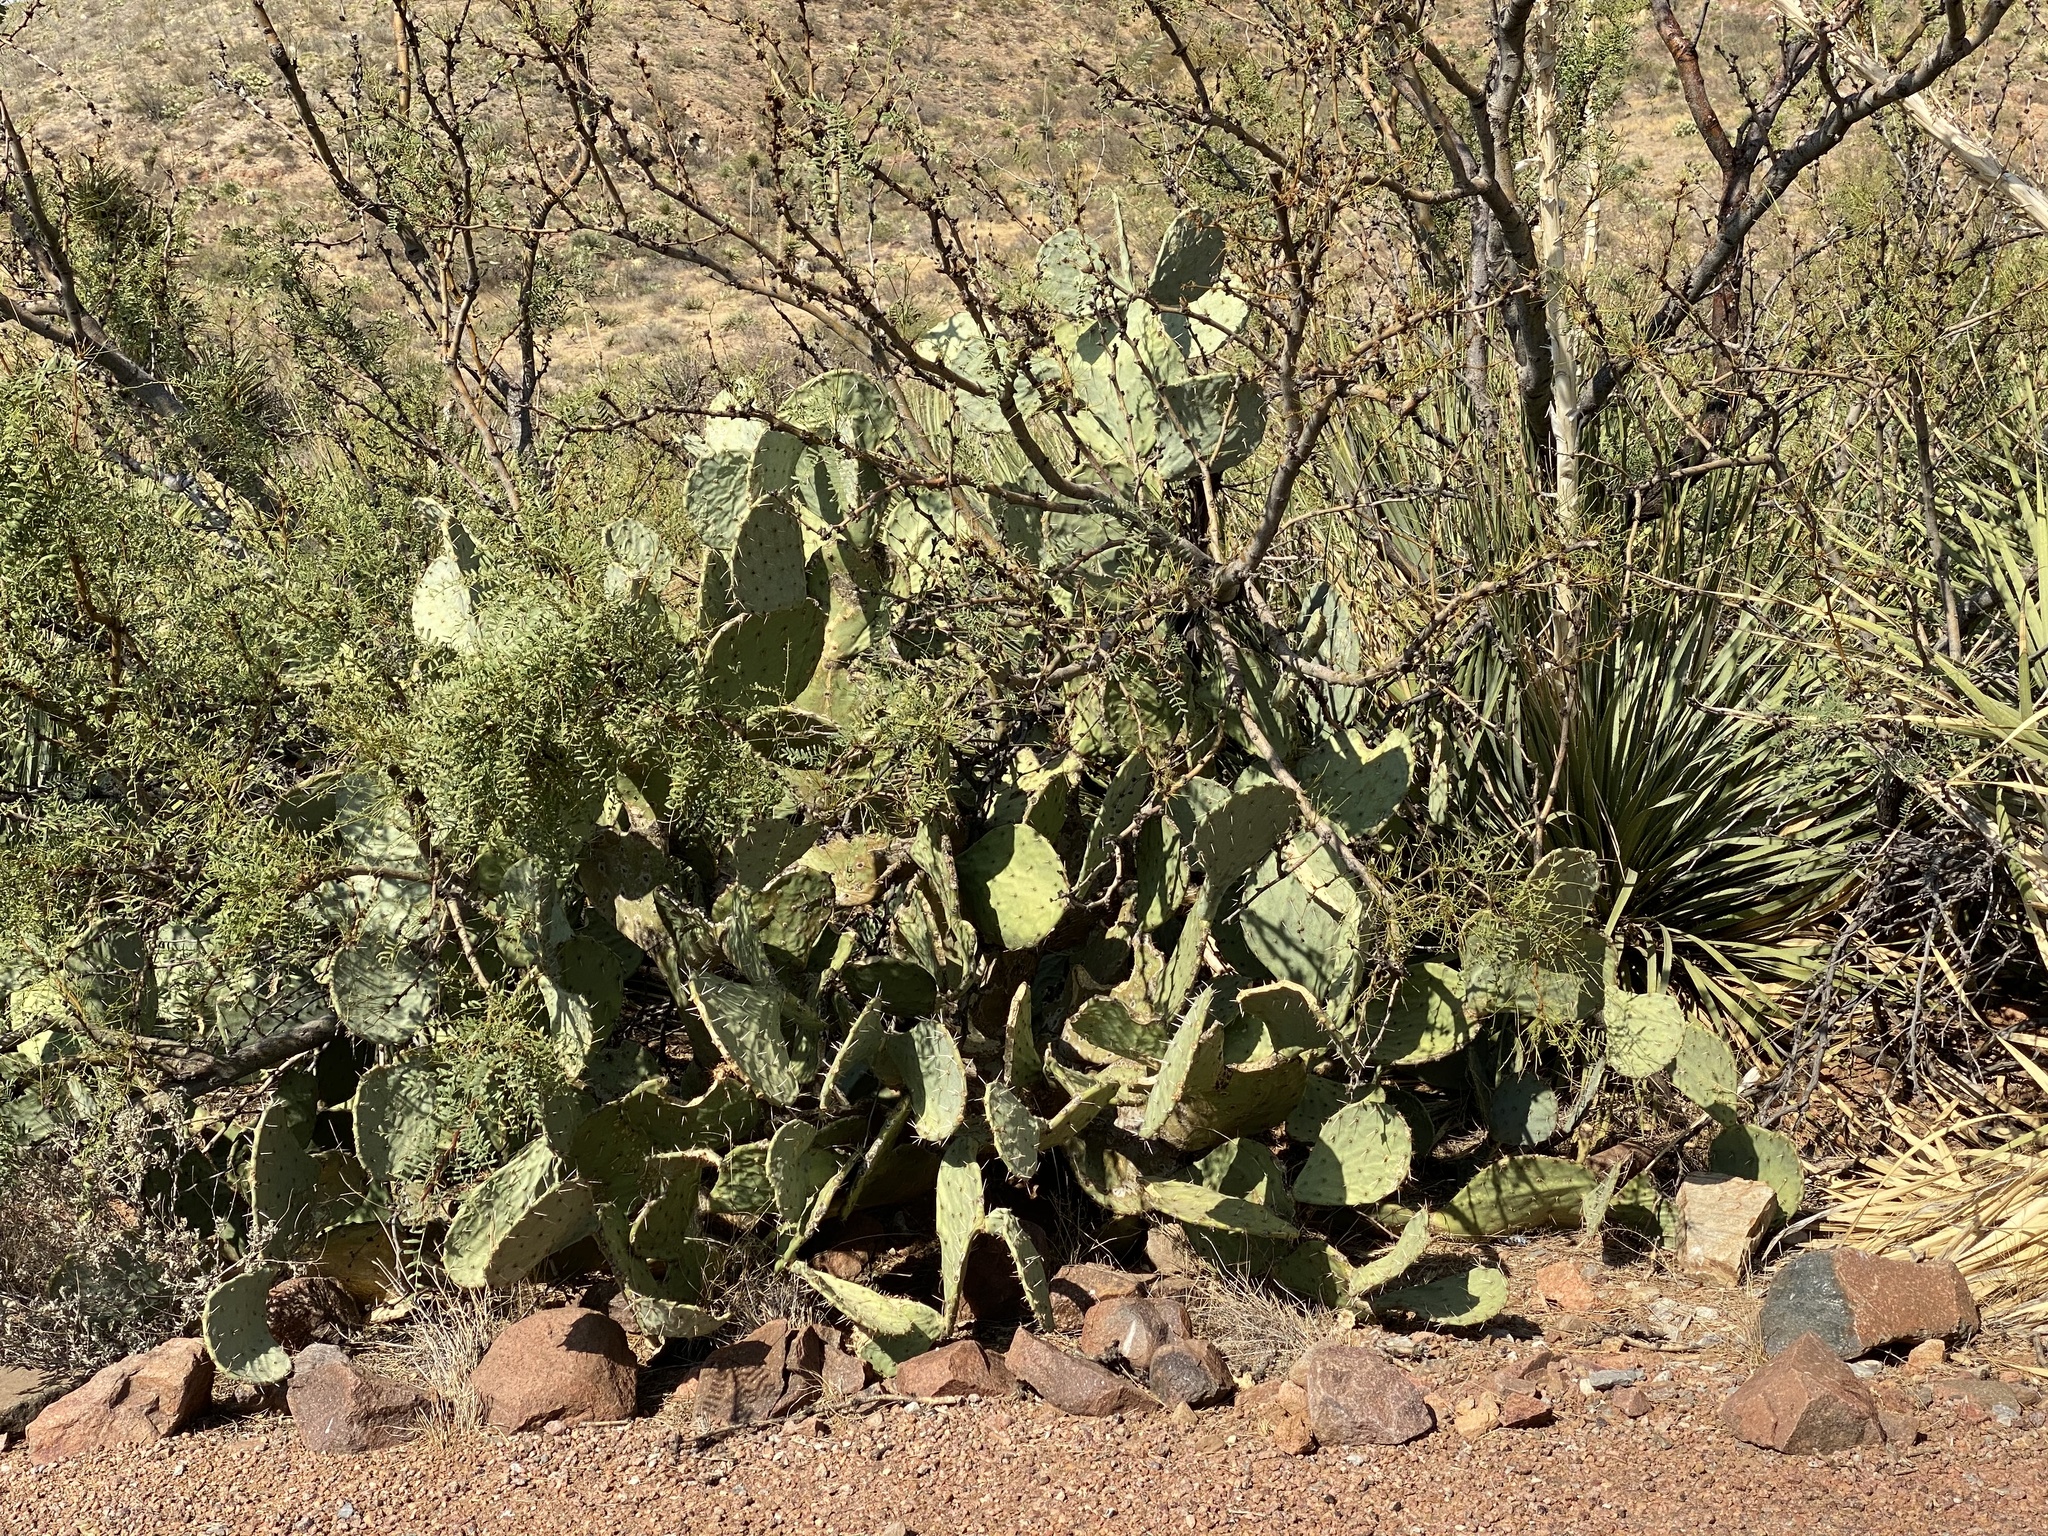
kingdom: Plantae
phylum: Tracheophyta
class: Magnoliopsida
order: Caryophyllales
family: Cactaceae
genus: Opuntia
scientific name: Opuntia engelmannii
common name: Cactus-apple
